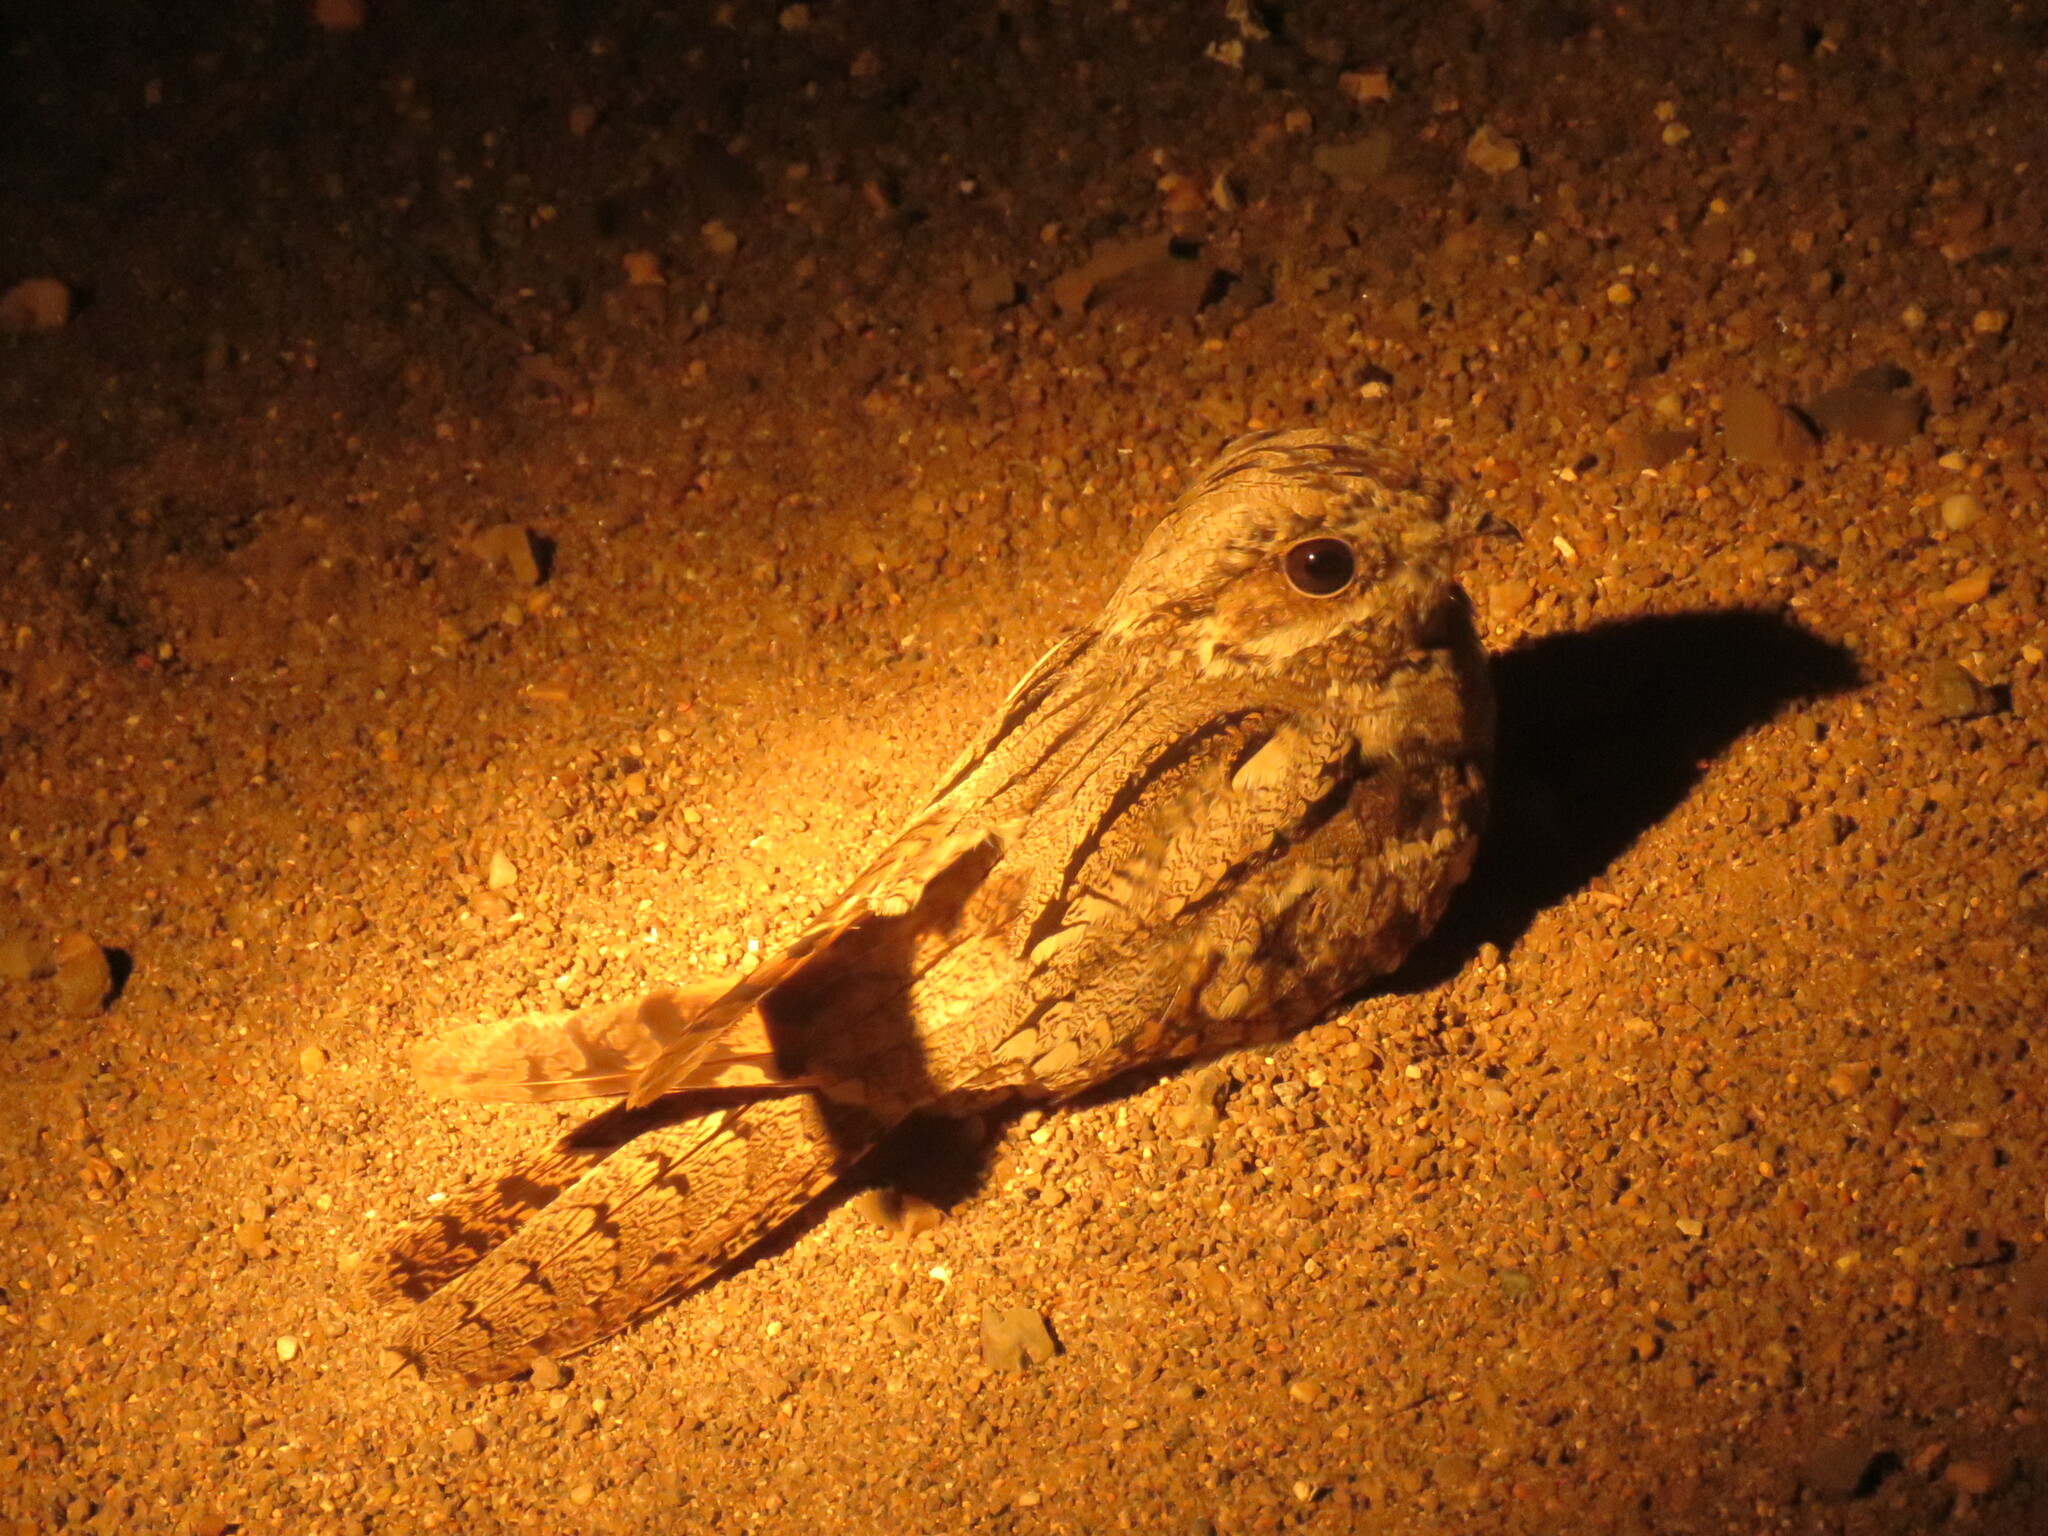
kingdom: Animalia
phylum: Chordata
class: Aves
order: Caprimulgiformes
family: Caprimulgidae
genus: Caprimulgus
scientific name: Caprimulgus europaeus
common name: European nightjar
